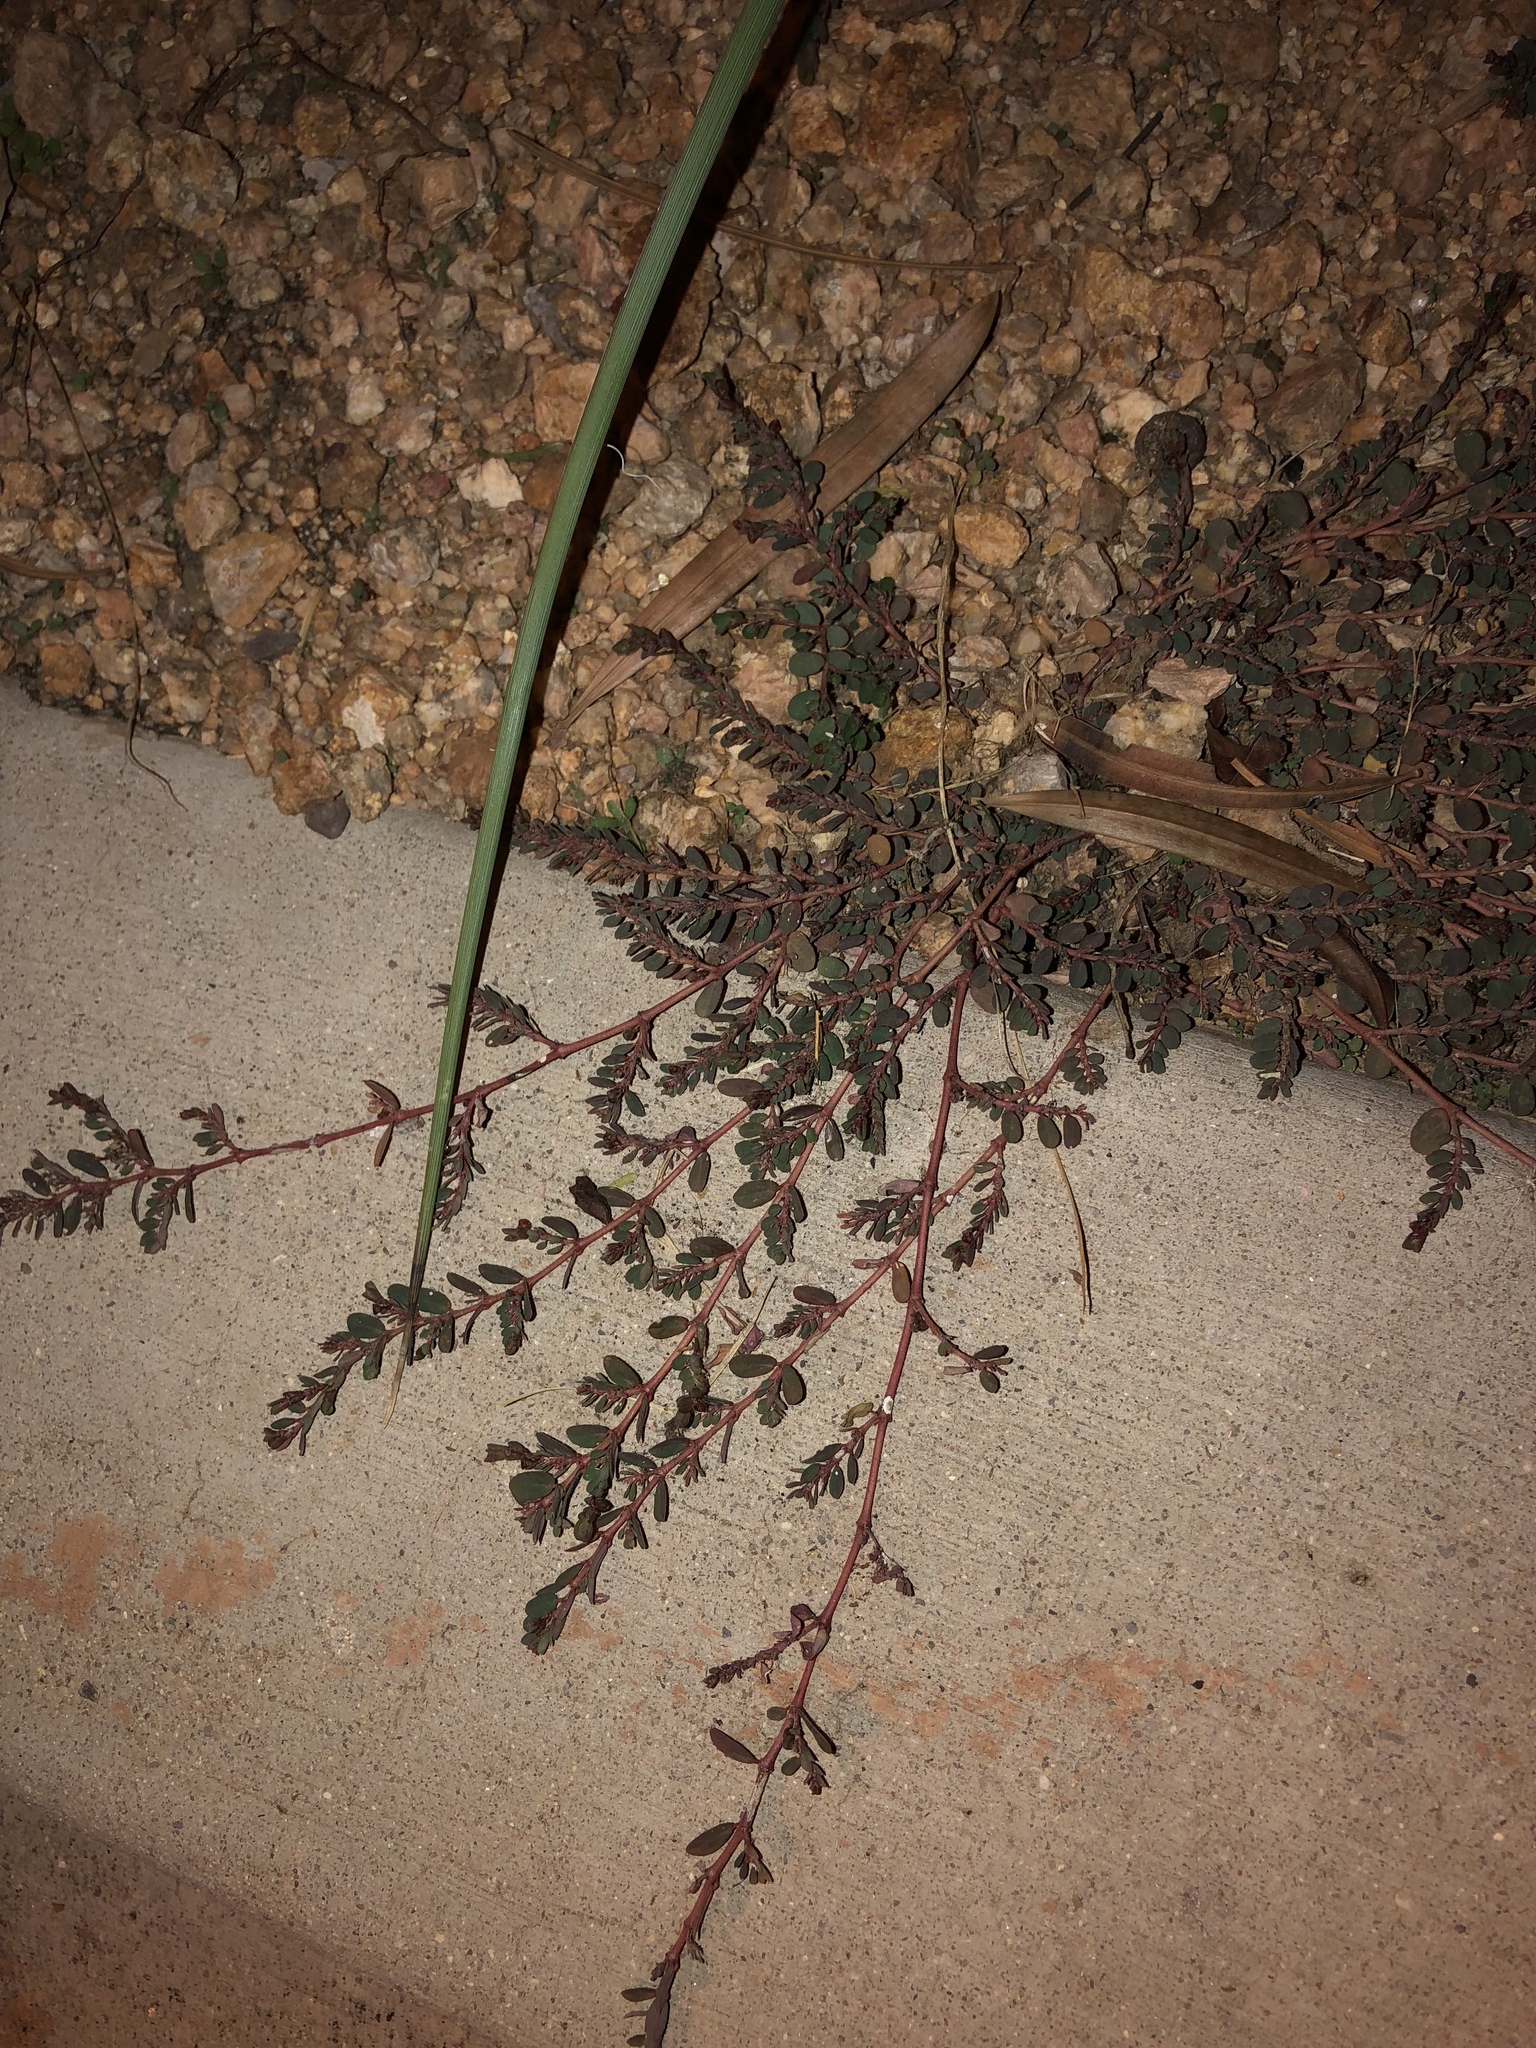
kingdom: Plantae
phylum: Tracheophyta
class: Magnoliopsida
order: Malpighiales
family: Euphorbiaceae
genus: Euphorbia
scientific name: Euphorbia prostrata
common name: Prostrate sandmat
